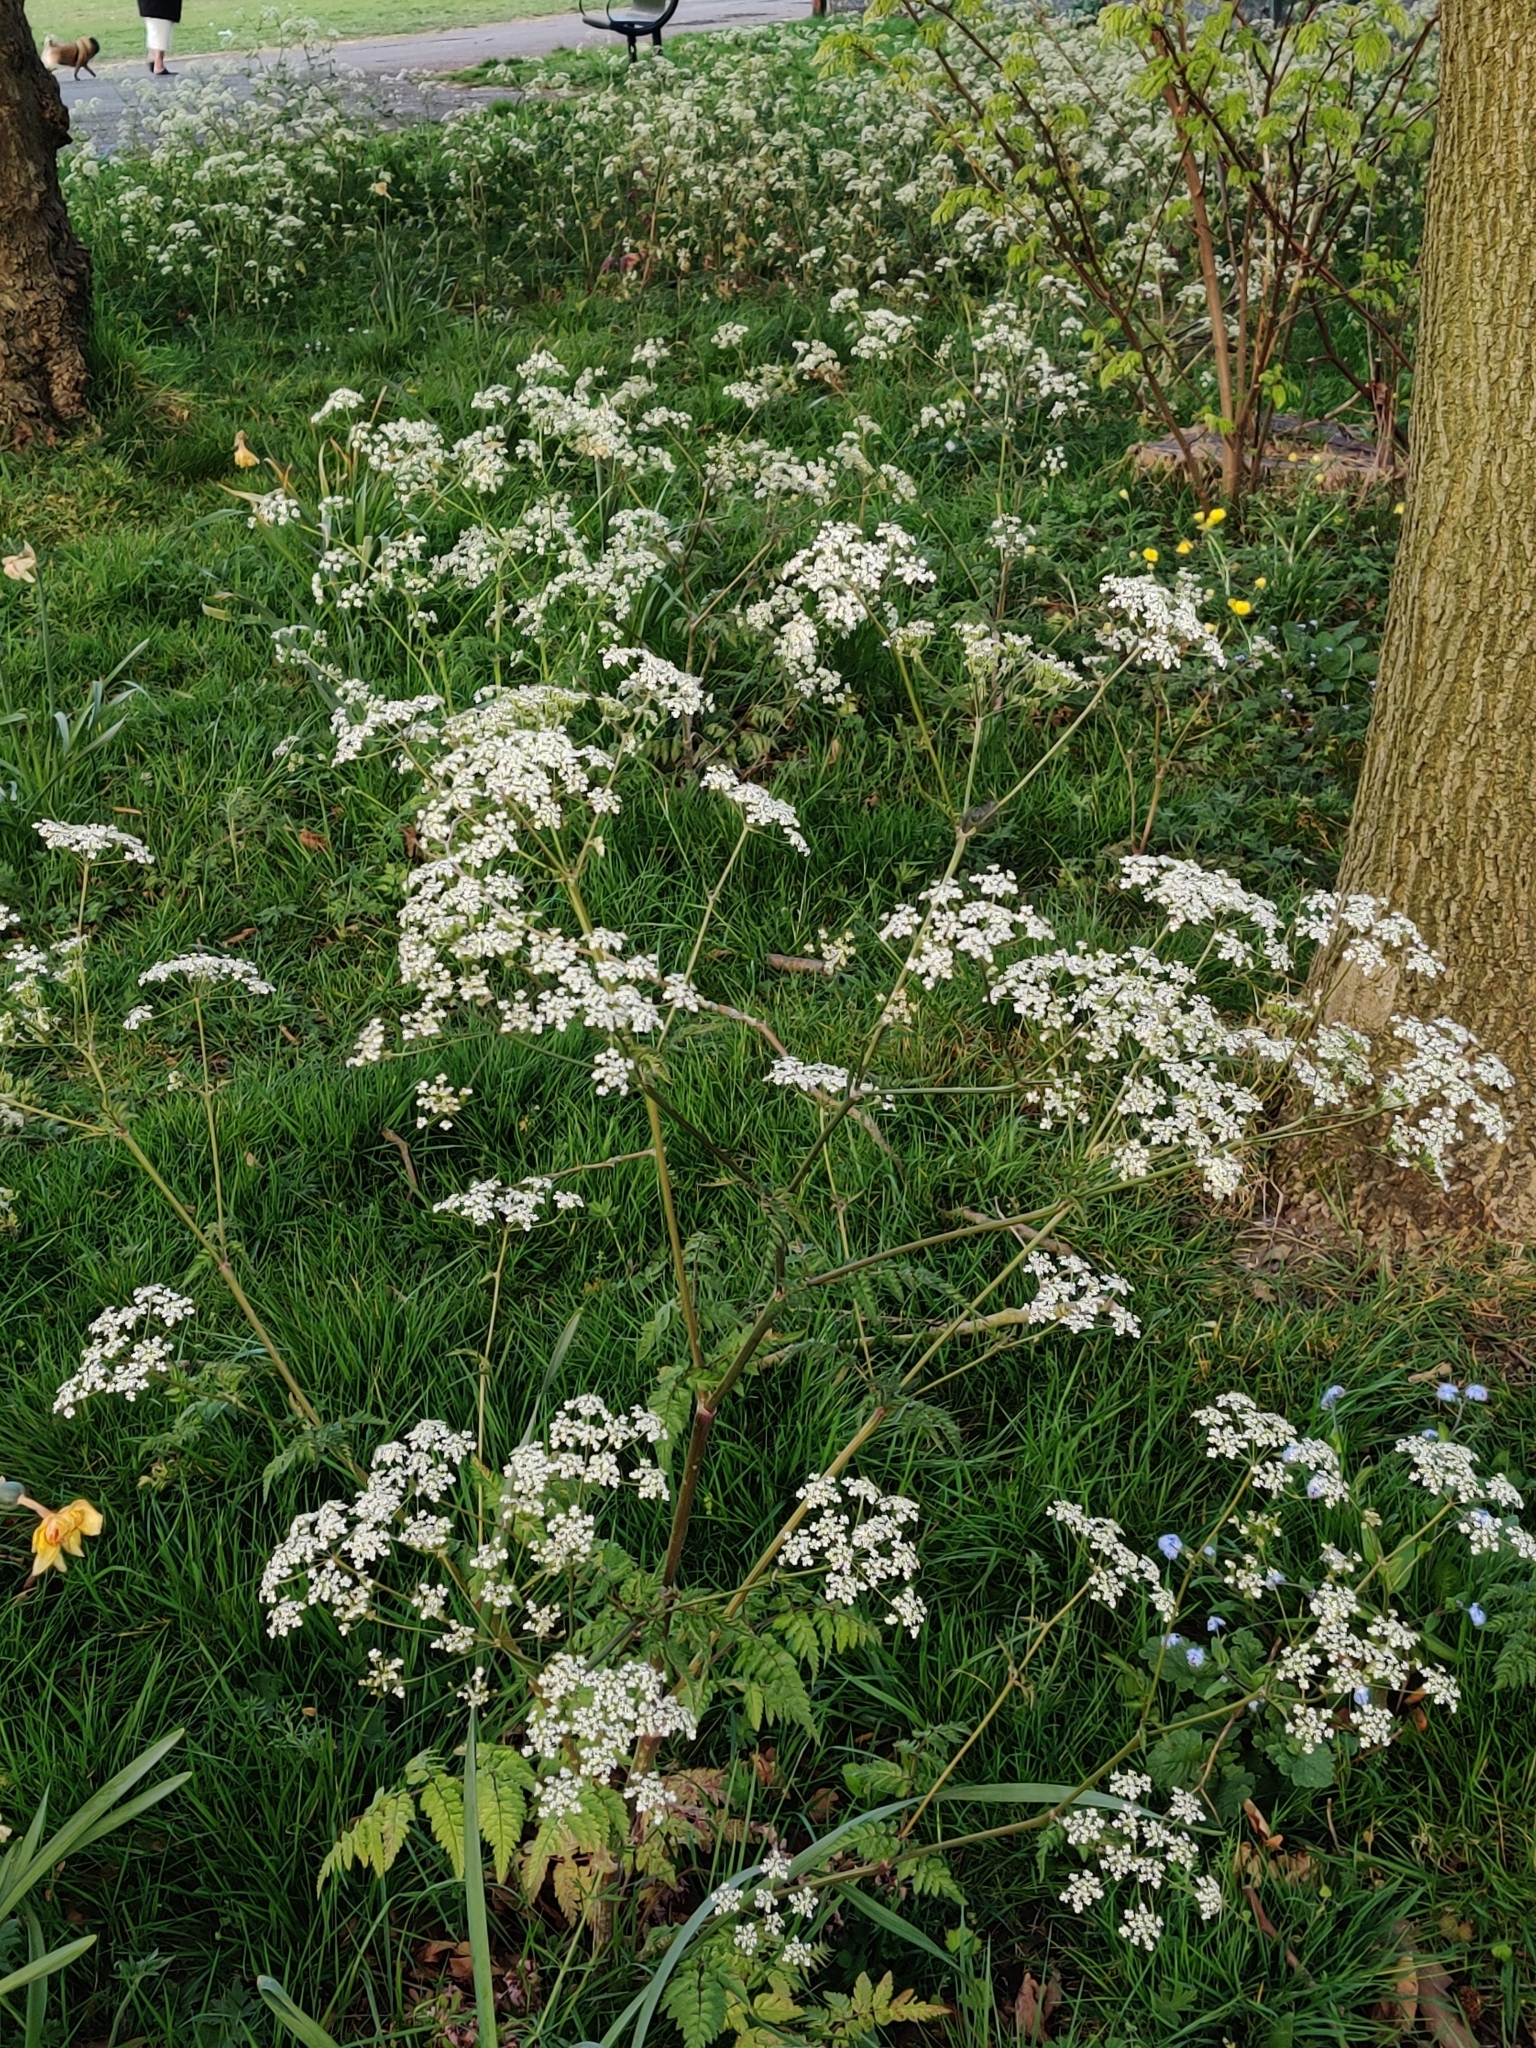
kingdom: Plantae
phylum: Tracheophyta
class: Magnoliopsida
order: Apiales
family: Apiaceae
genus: Anthriscus
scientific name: Anthriscus sylvestris
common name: Cow parsley
